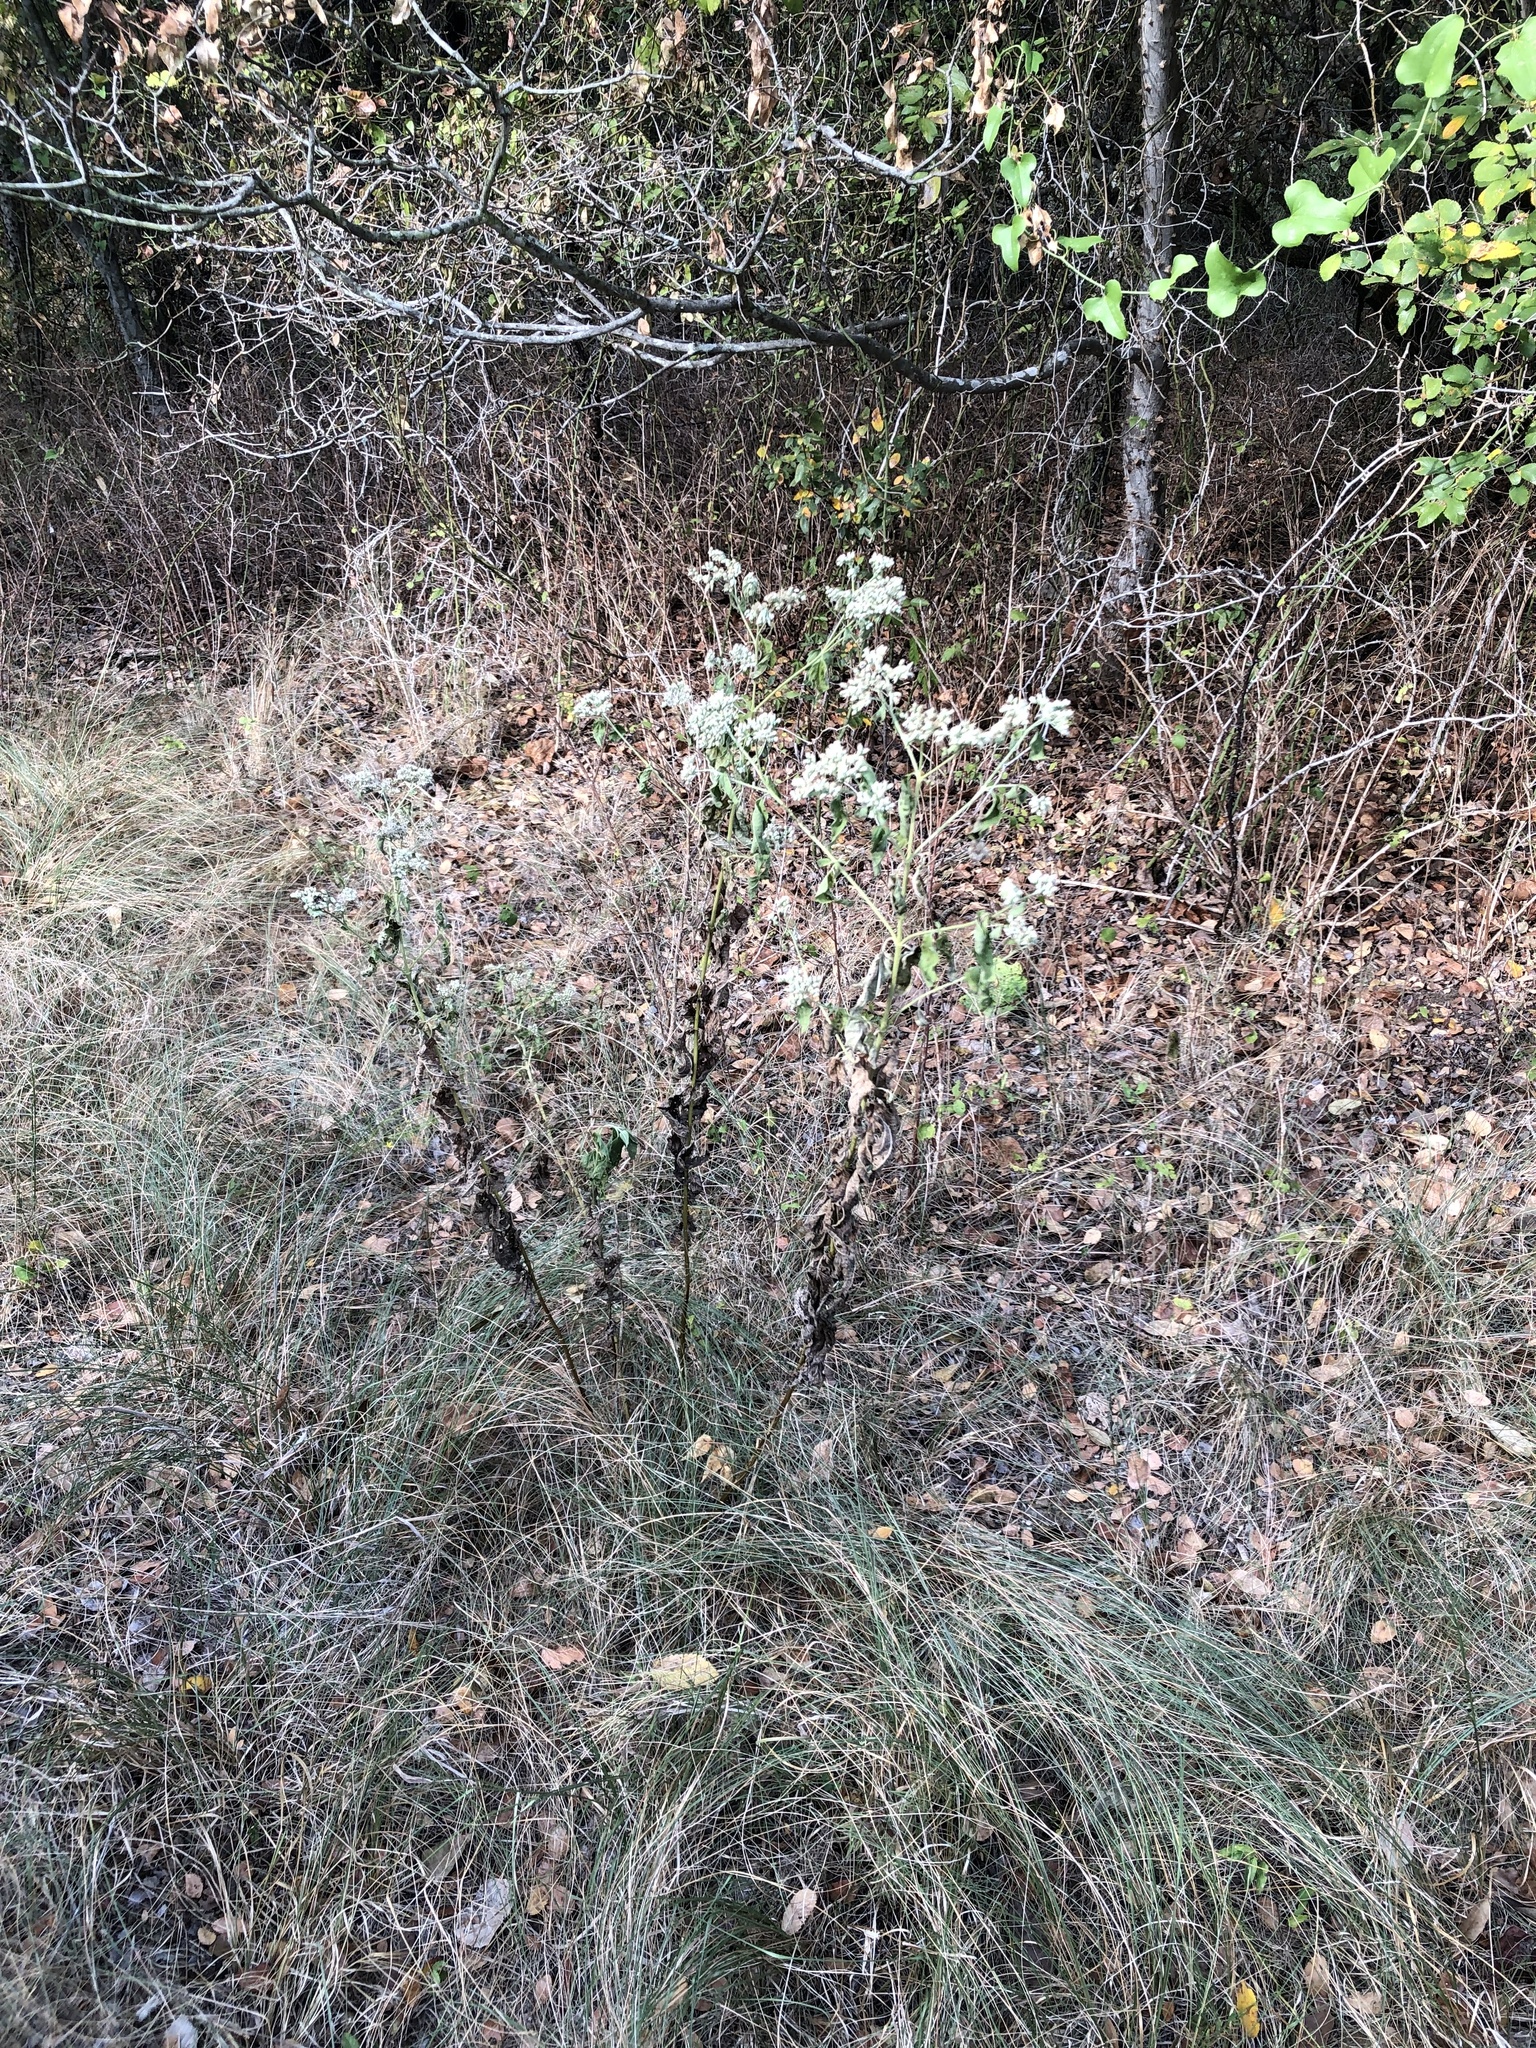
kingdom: Plantae
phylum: Tracheophyta
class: Magnoliopsida
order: Asterales
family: Asteraceae
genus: Eupatorium
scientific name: Eupatorium serotinum
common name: Late boneset
